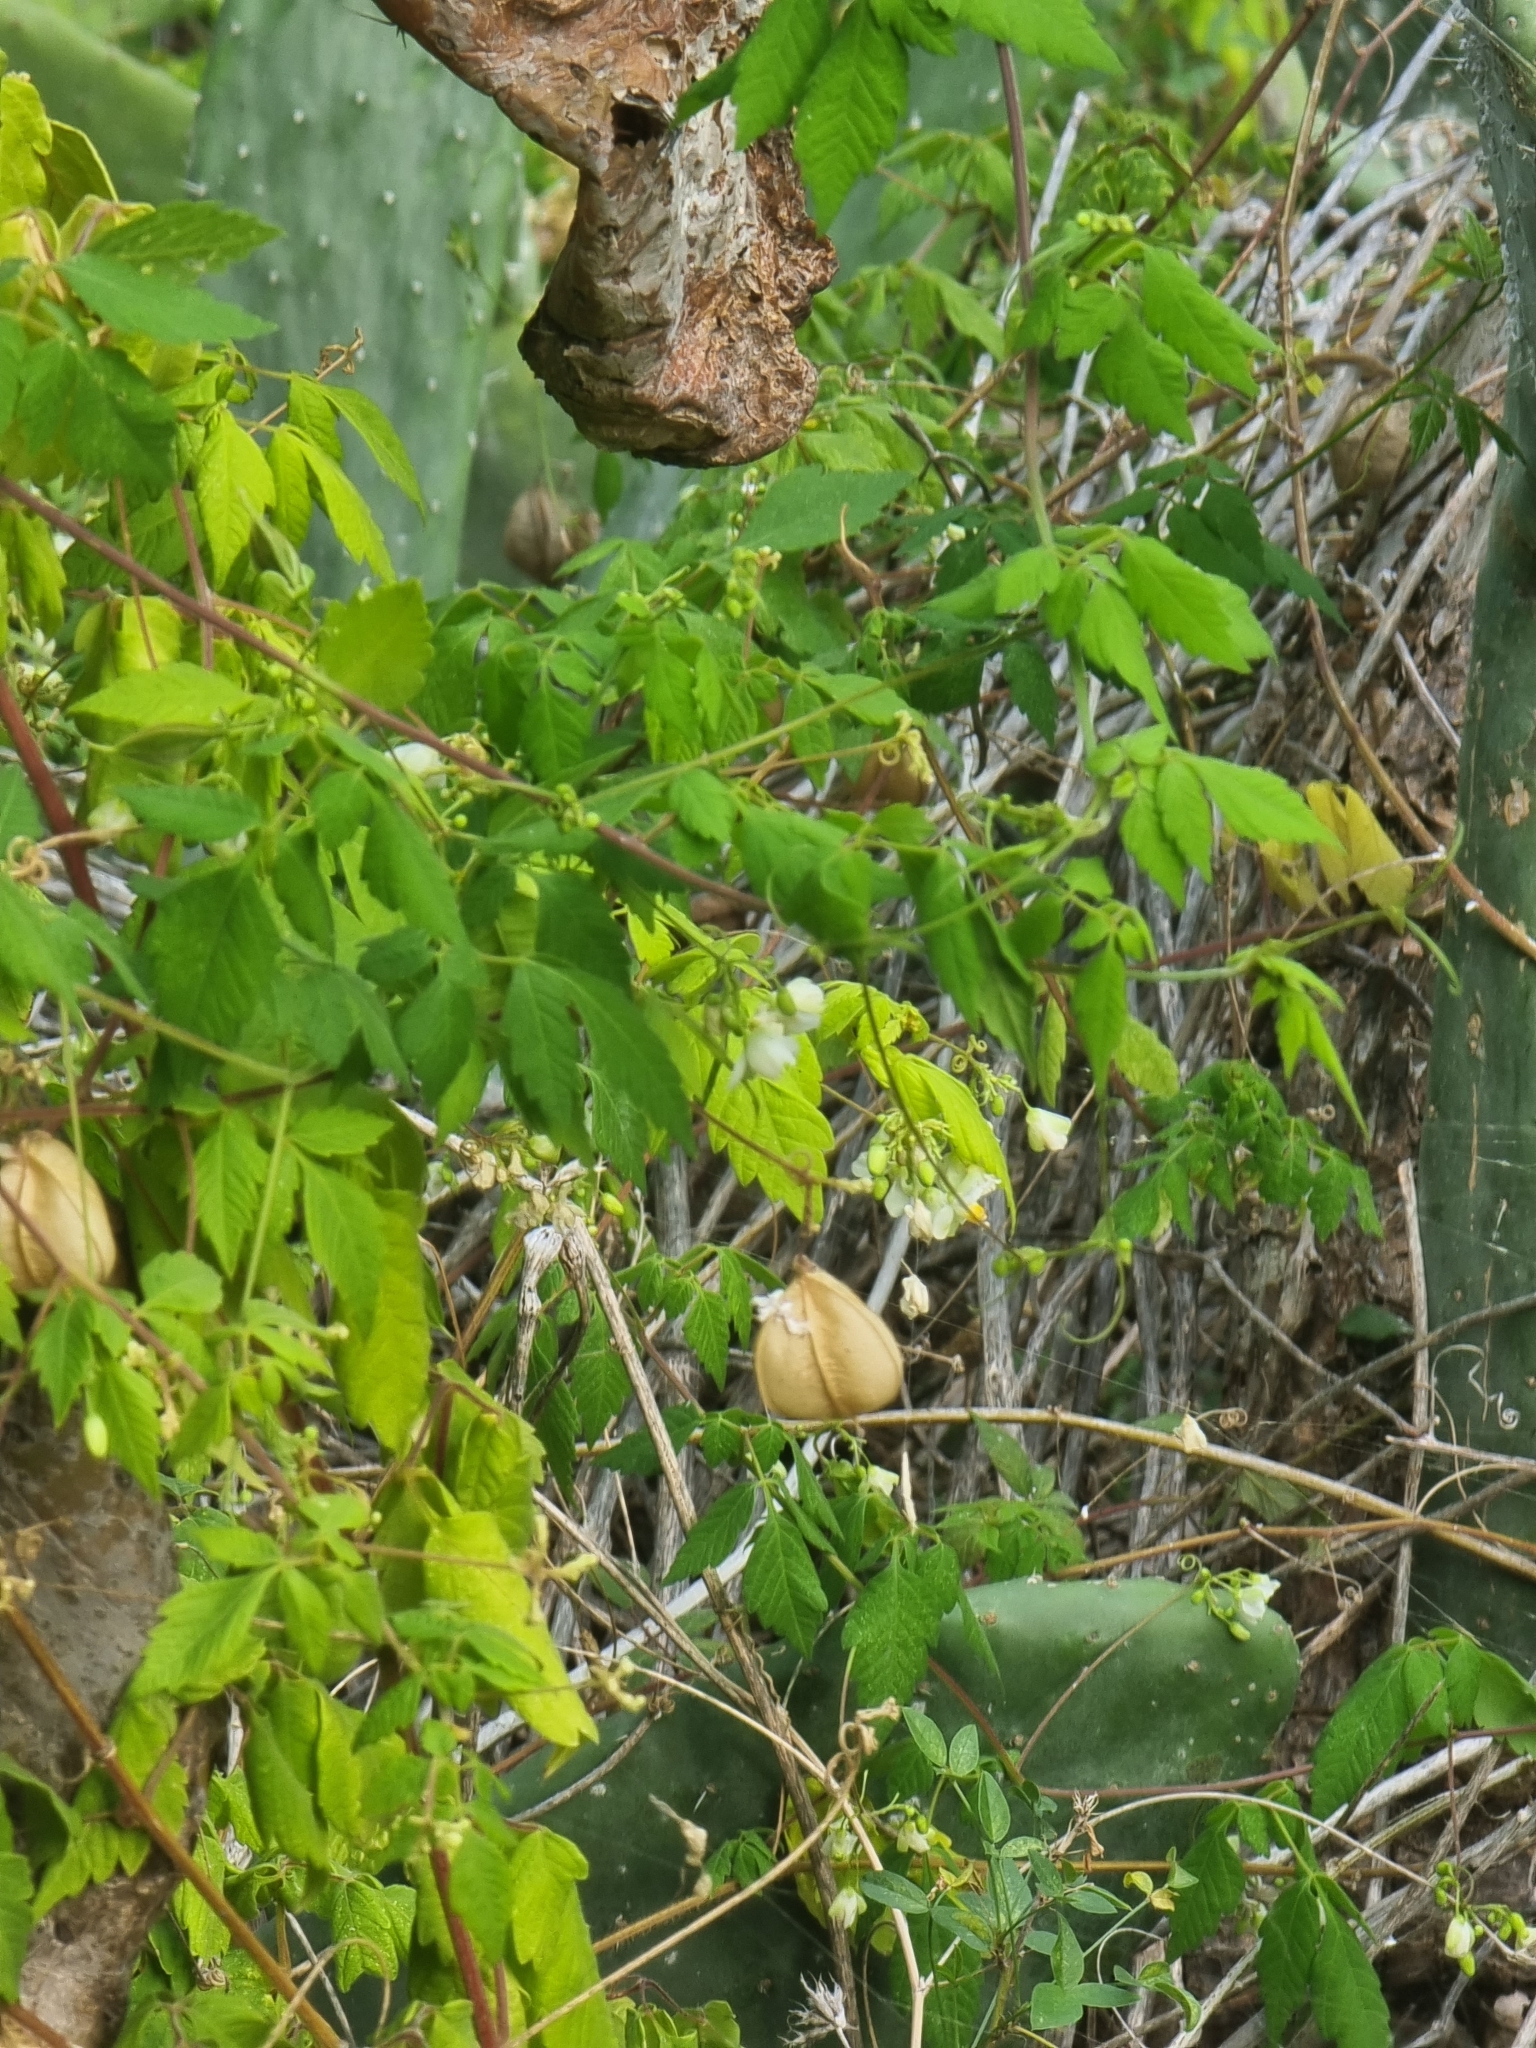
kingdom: Plantae
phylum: Tracheophyta
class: Magnoliopsida
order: Sapindales
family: Sapindaceae
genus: Cardiospermum
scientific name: Cardiospermum grandiflorum
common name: Balloon vine
